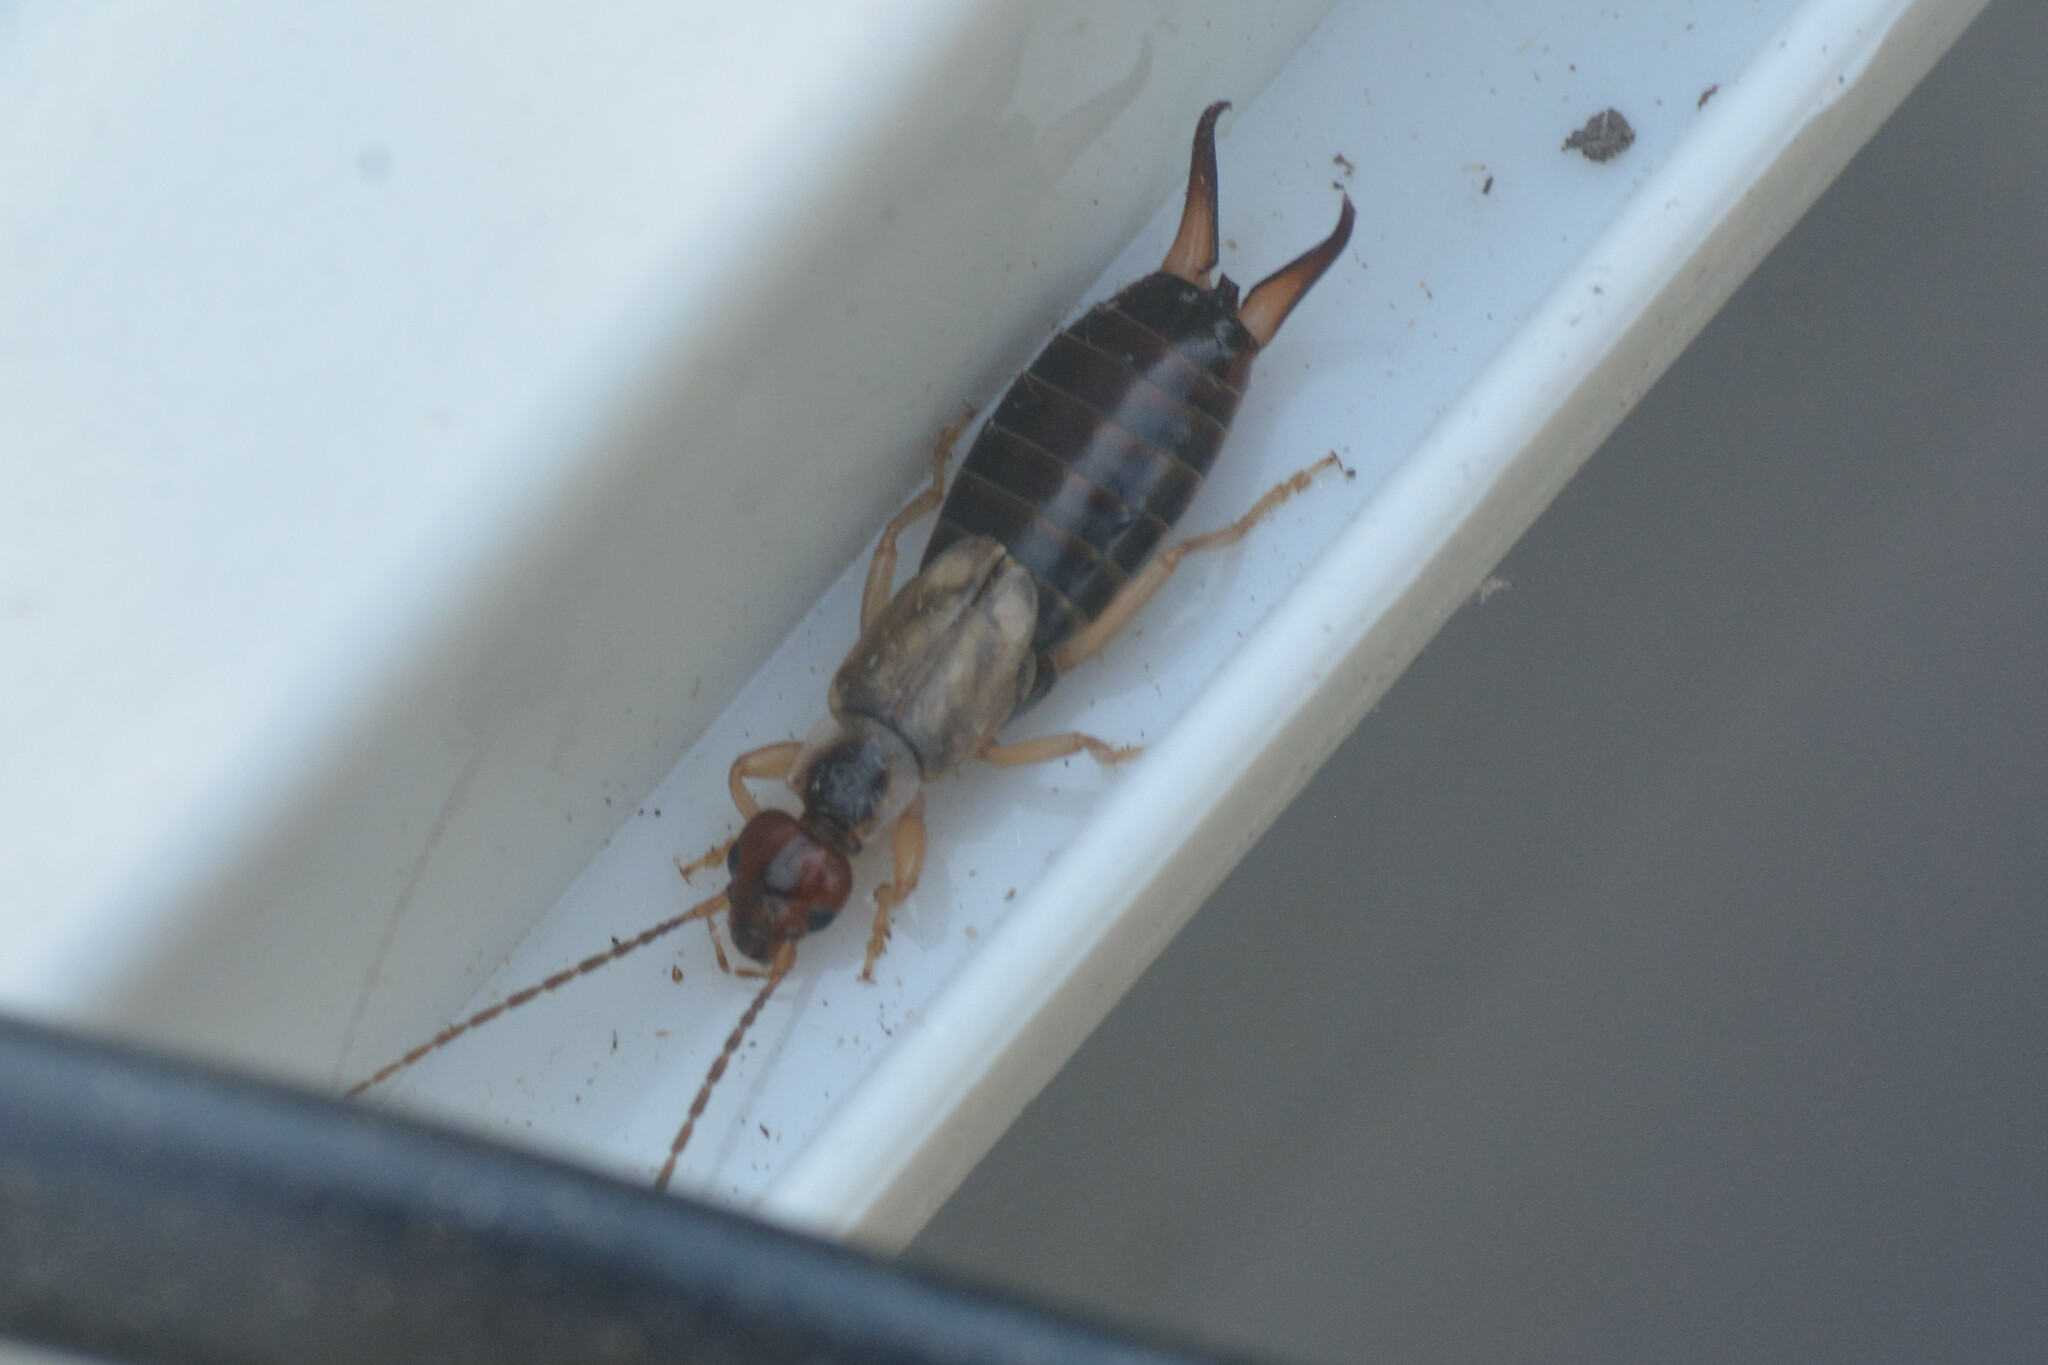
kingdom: Animalia
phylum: Arthropoda
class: Insecta
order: Dermaptera
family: Forficulidae
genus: Forficula
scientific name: Forficula
